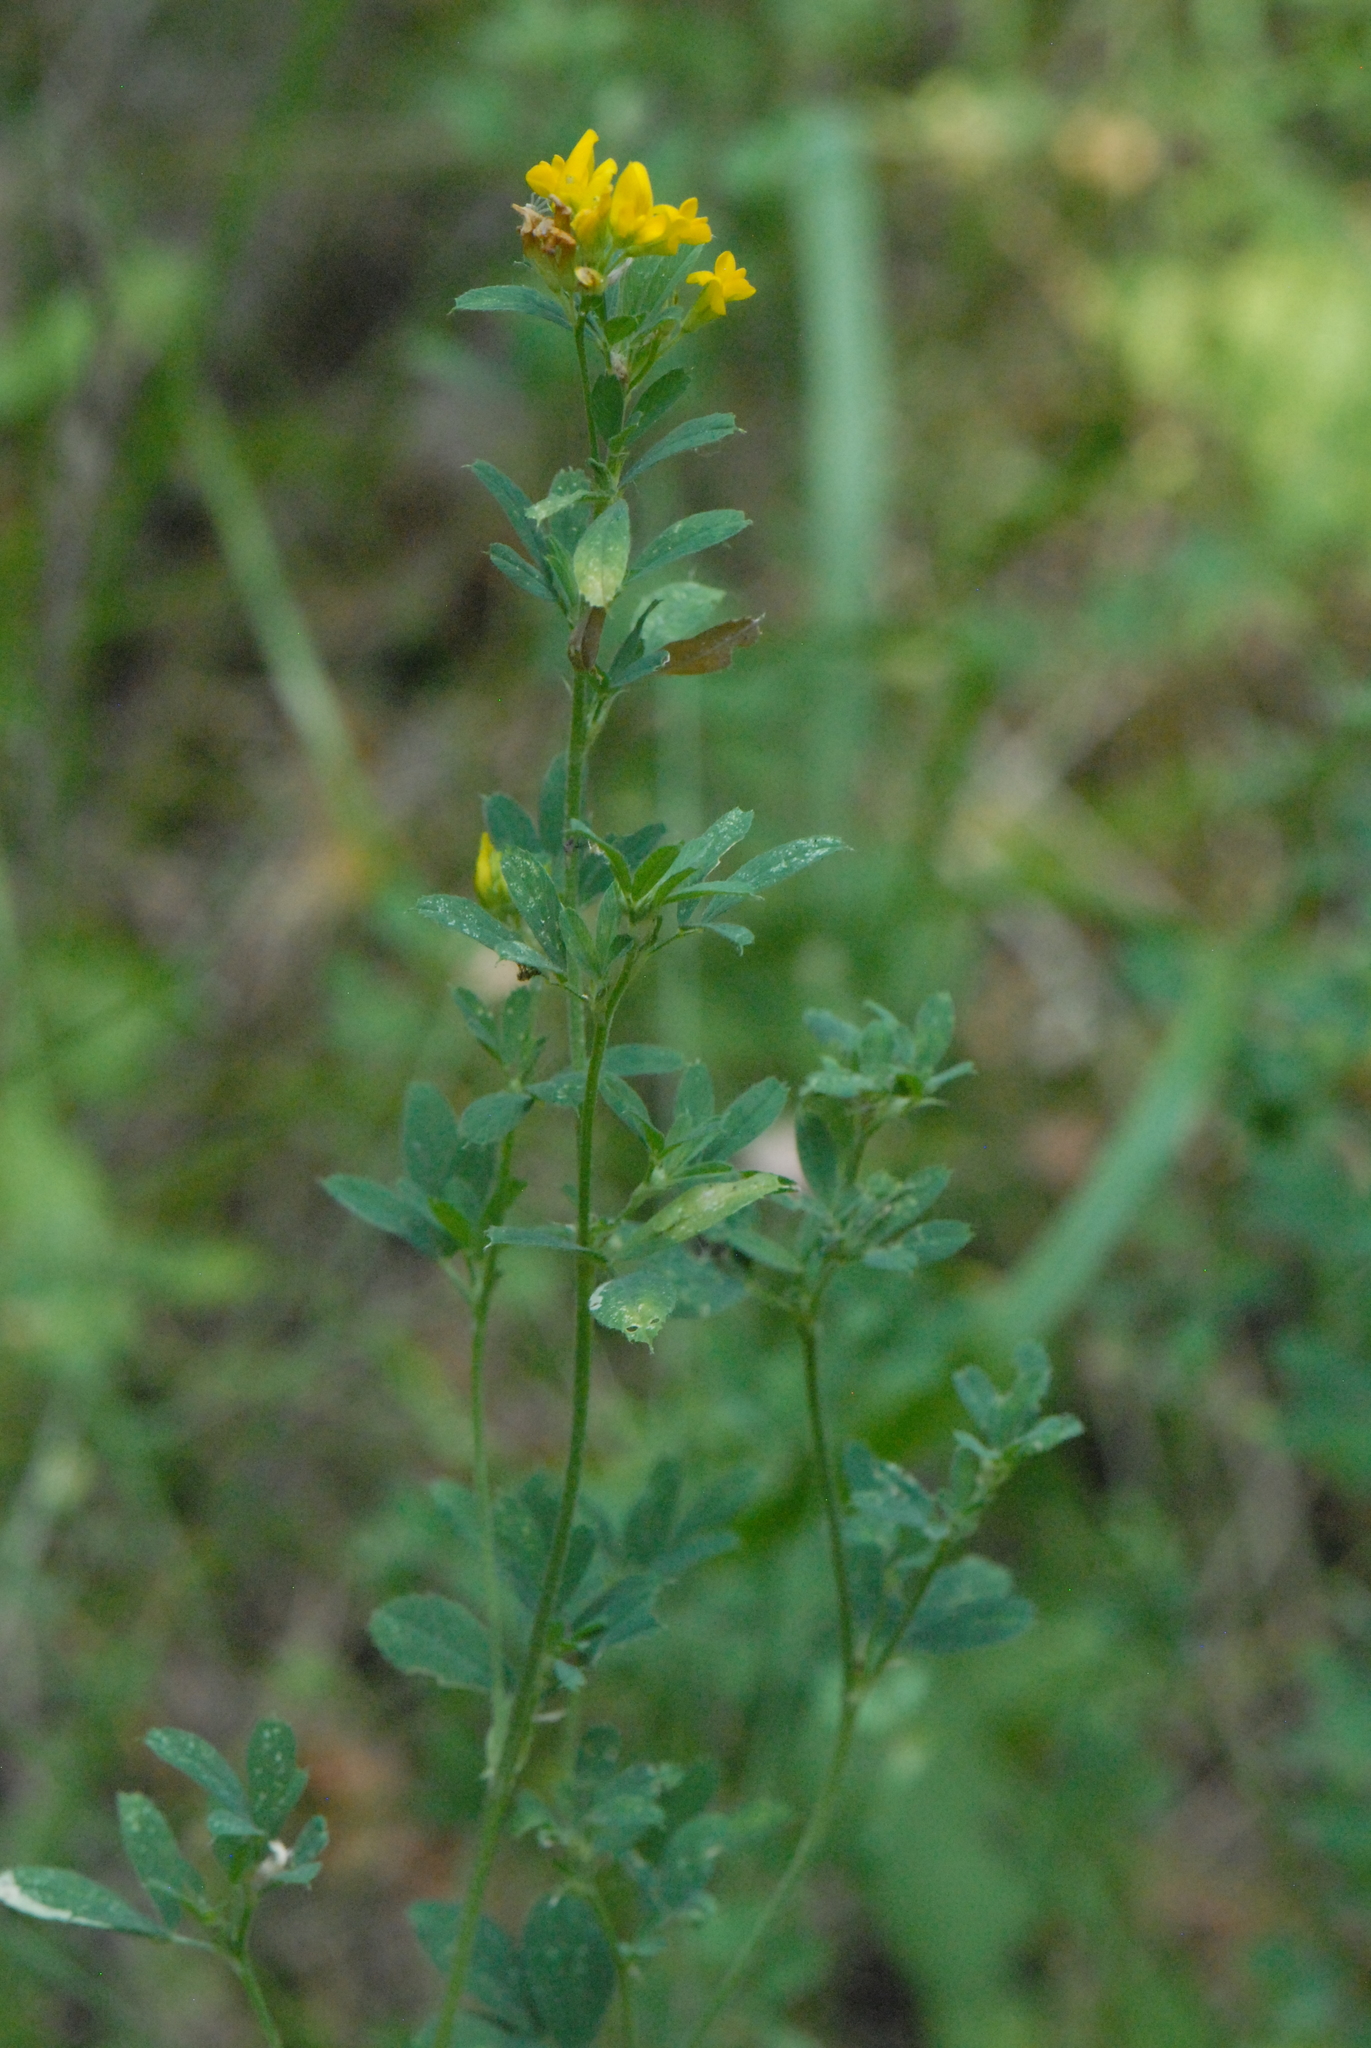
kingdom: Plantae
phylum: Tracheophyta
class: Magnoliopsida
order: Fabales
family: Fabaceae
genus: Medicago
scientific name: Medicago falcata
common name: Sickle medick
